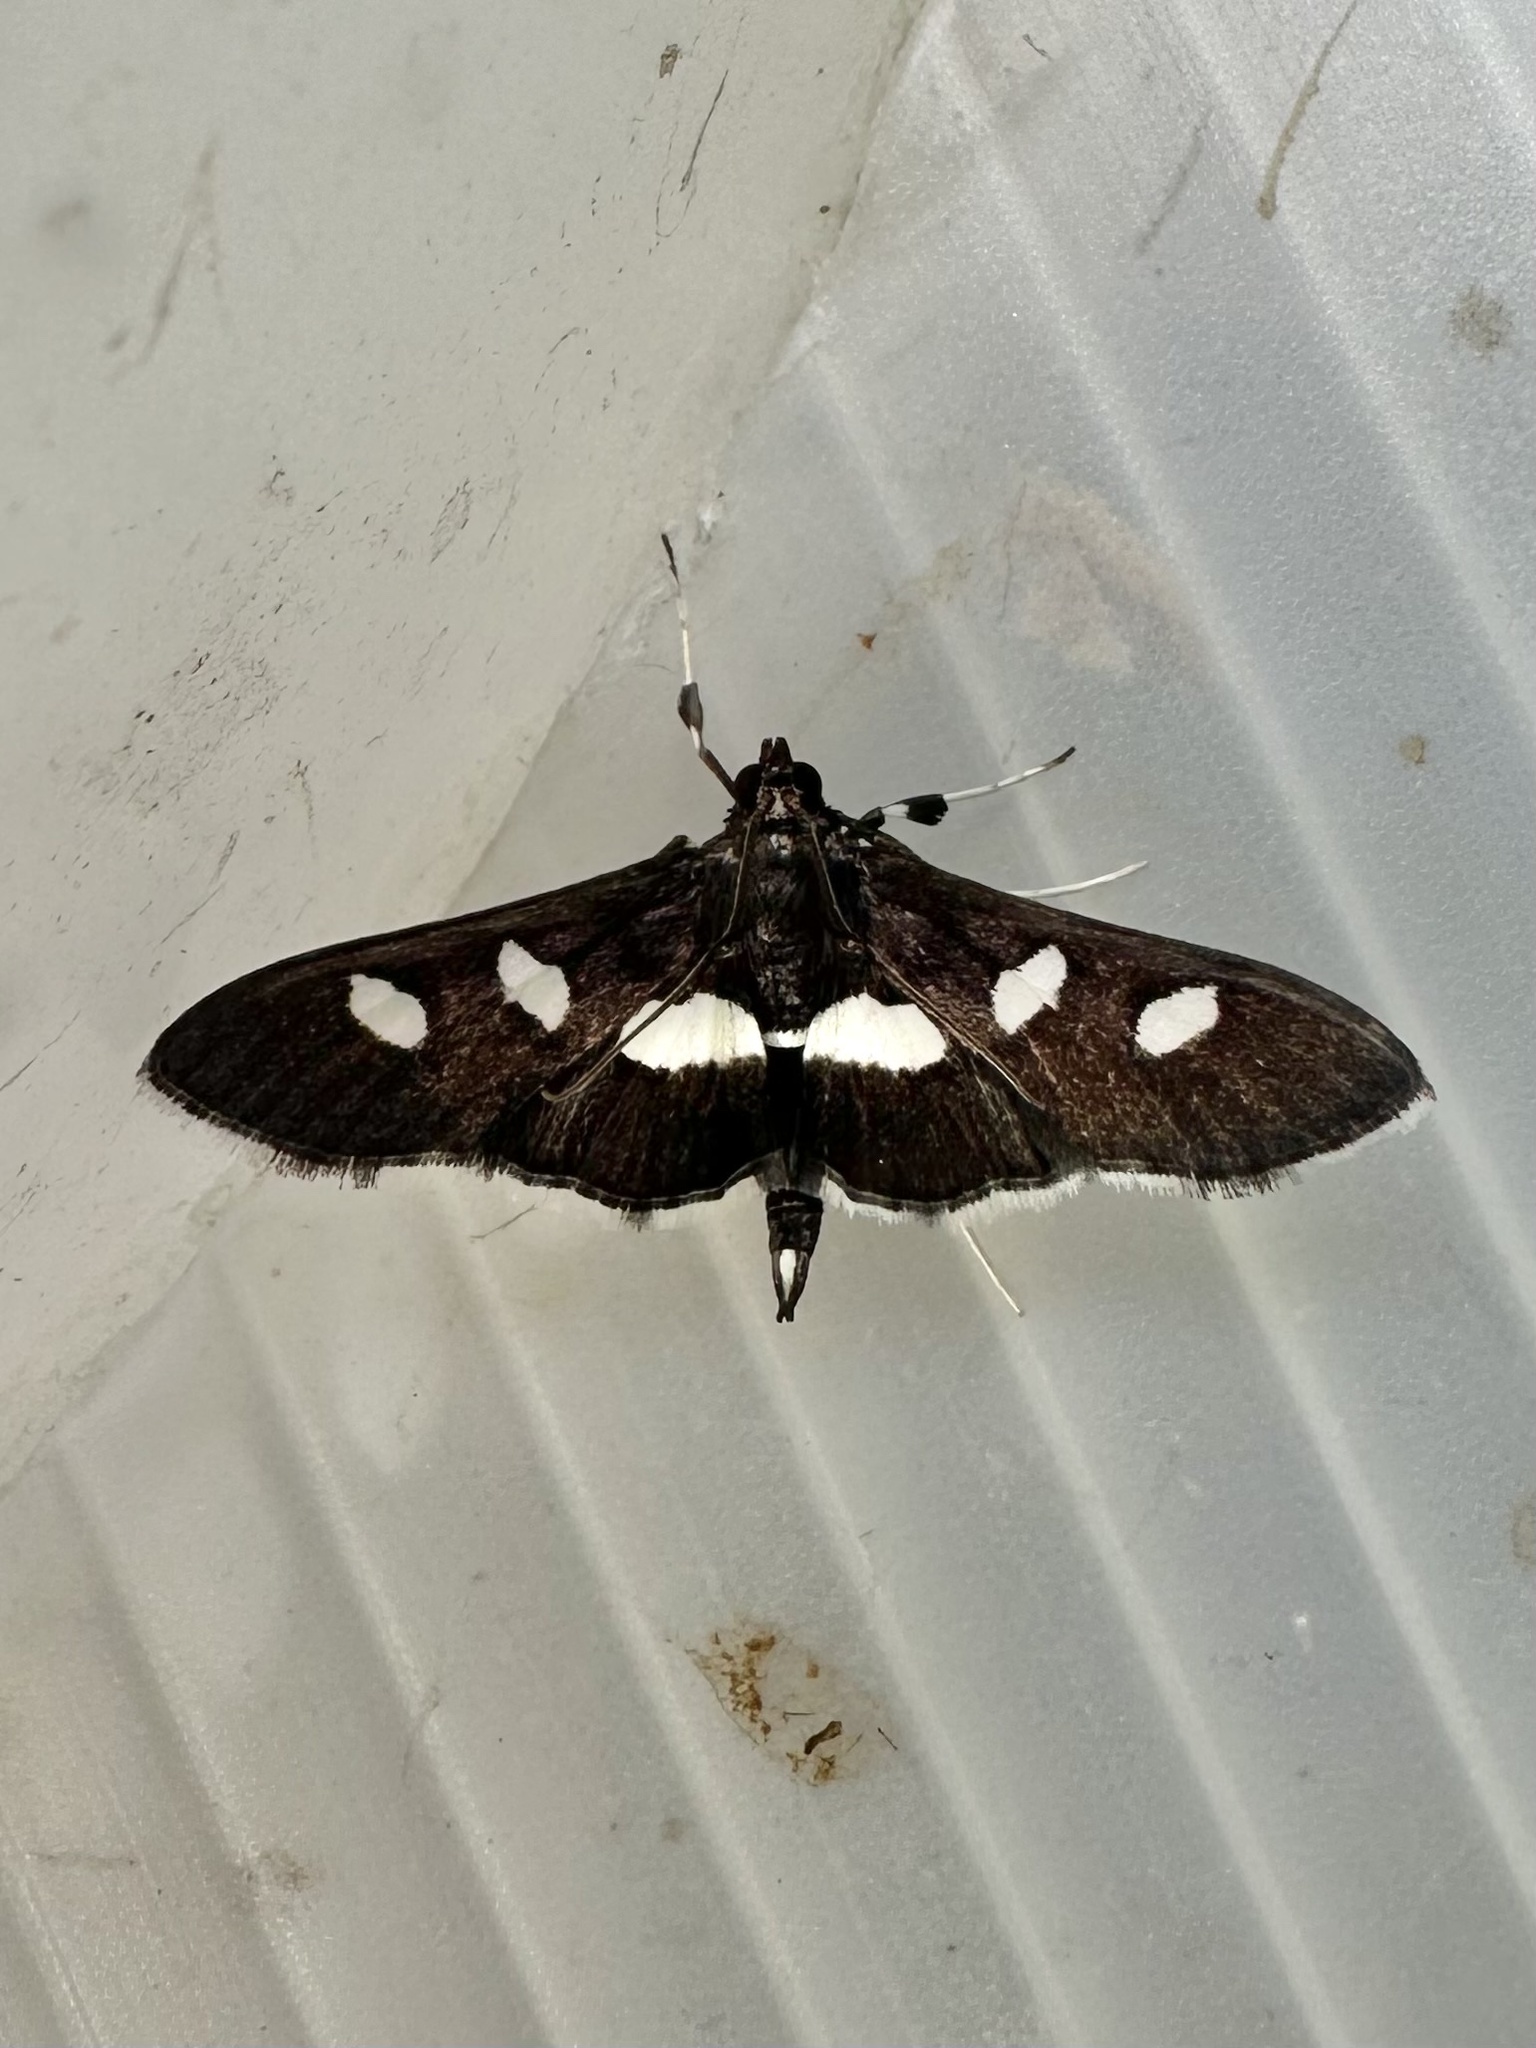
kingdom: Animalia
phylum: Arthropoda
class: Insecta
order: Lepidoptera
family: Crambidae
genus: Desmia
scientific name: Desmia
